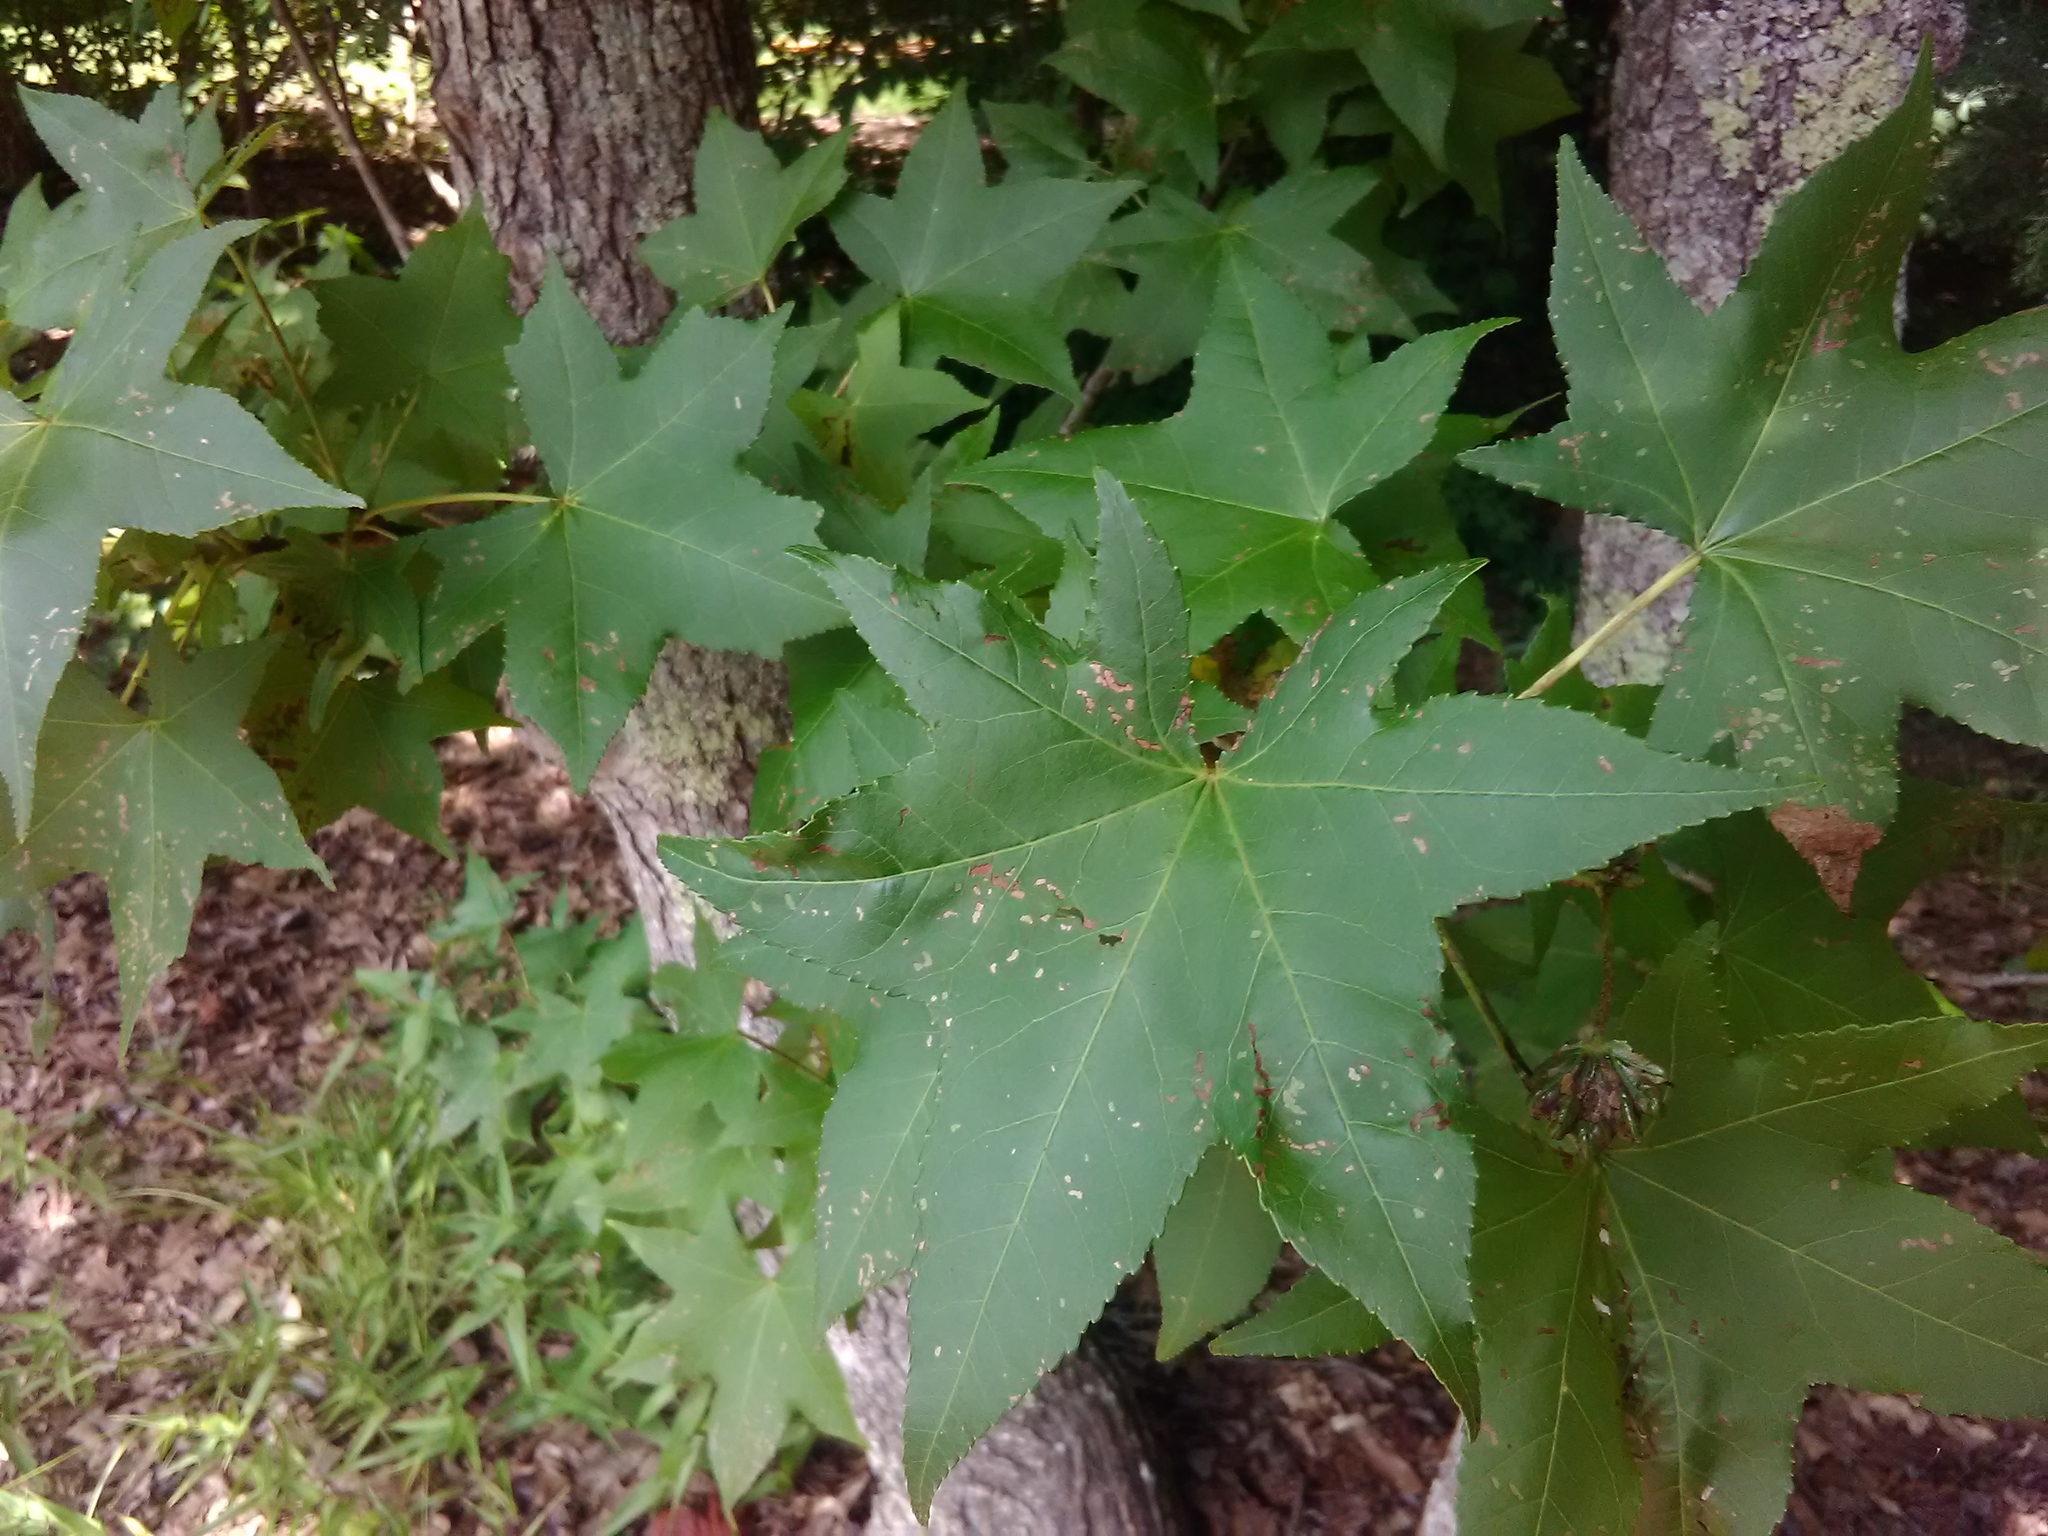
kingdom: Plantae
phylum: Tracheophyta
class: Magnoliopsida
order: Saxifragales
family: Altingiaceae
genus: Liquidambar
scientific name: Liquidambar styraciflua
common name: Sweet gum
